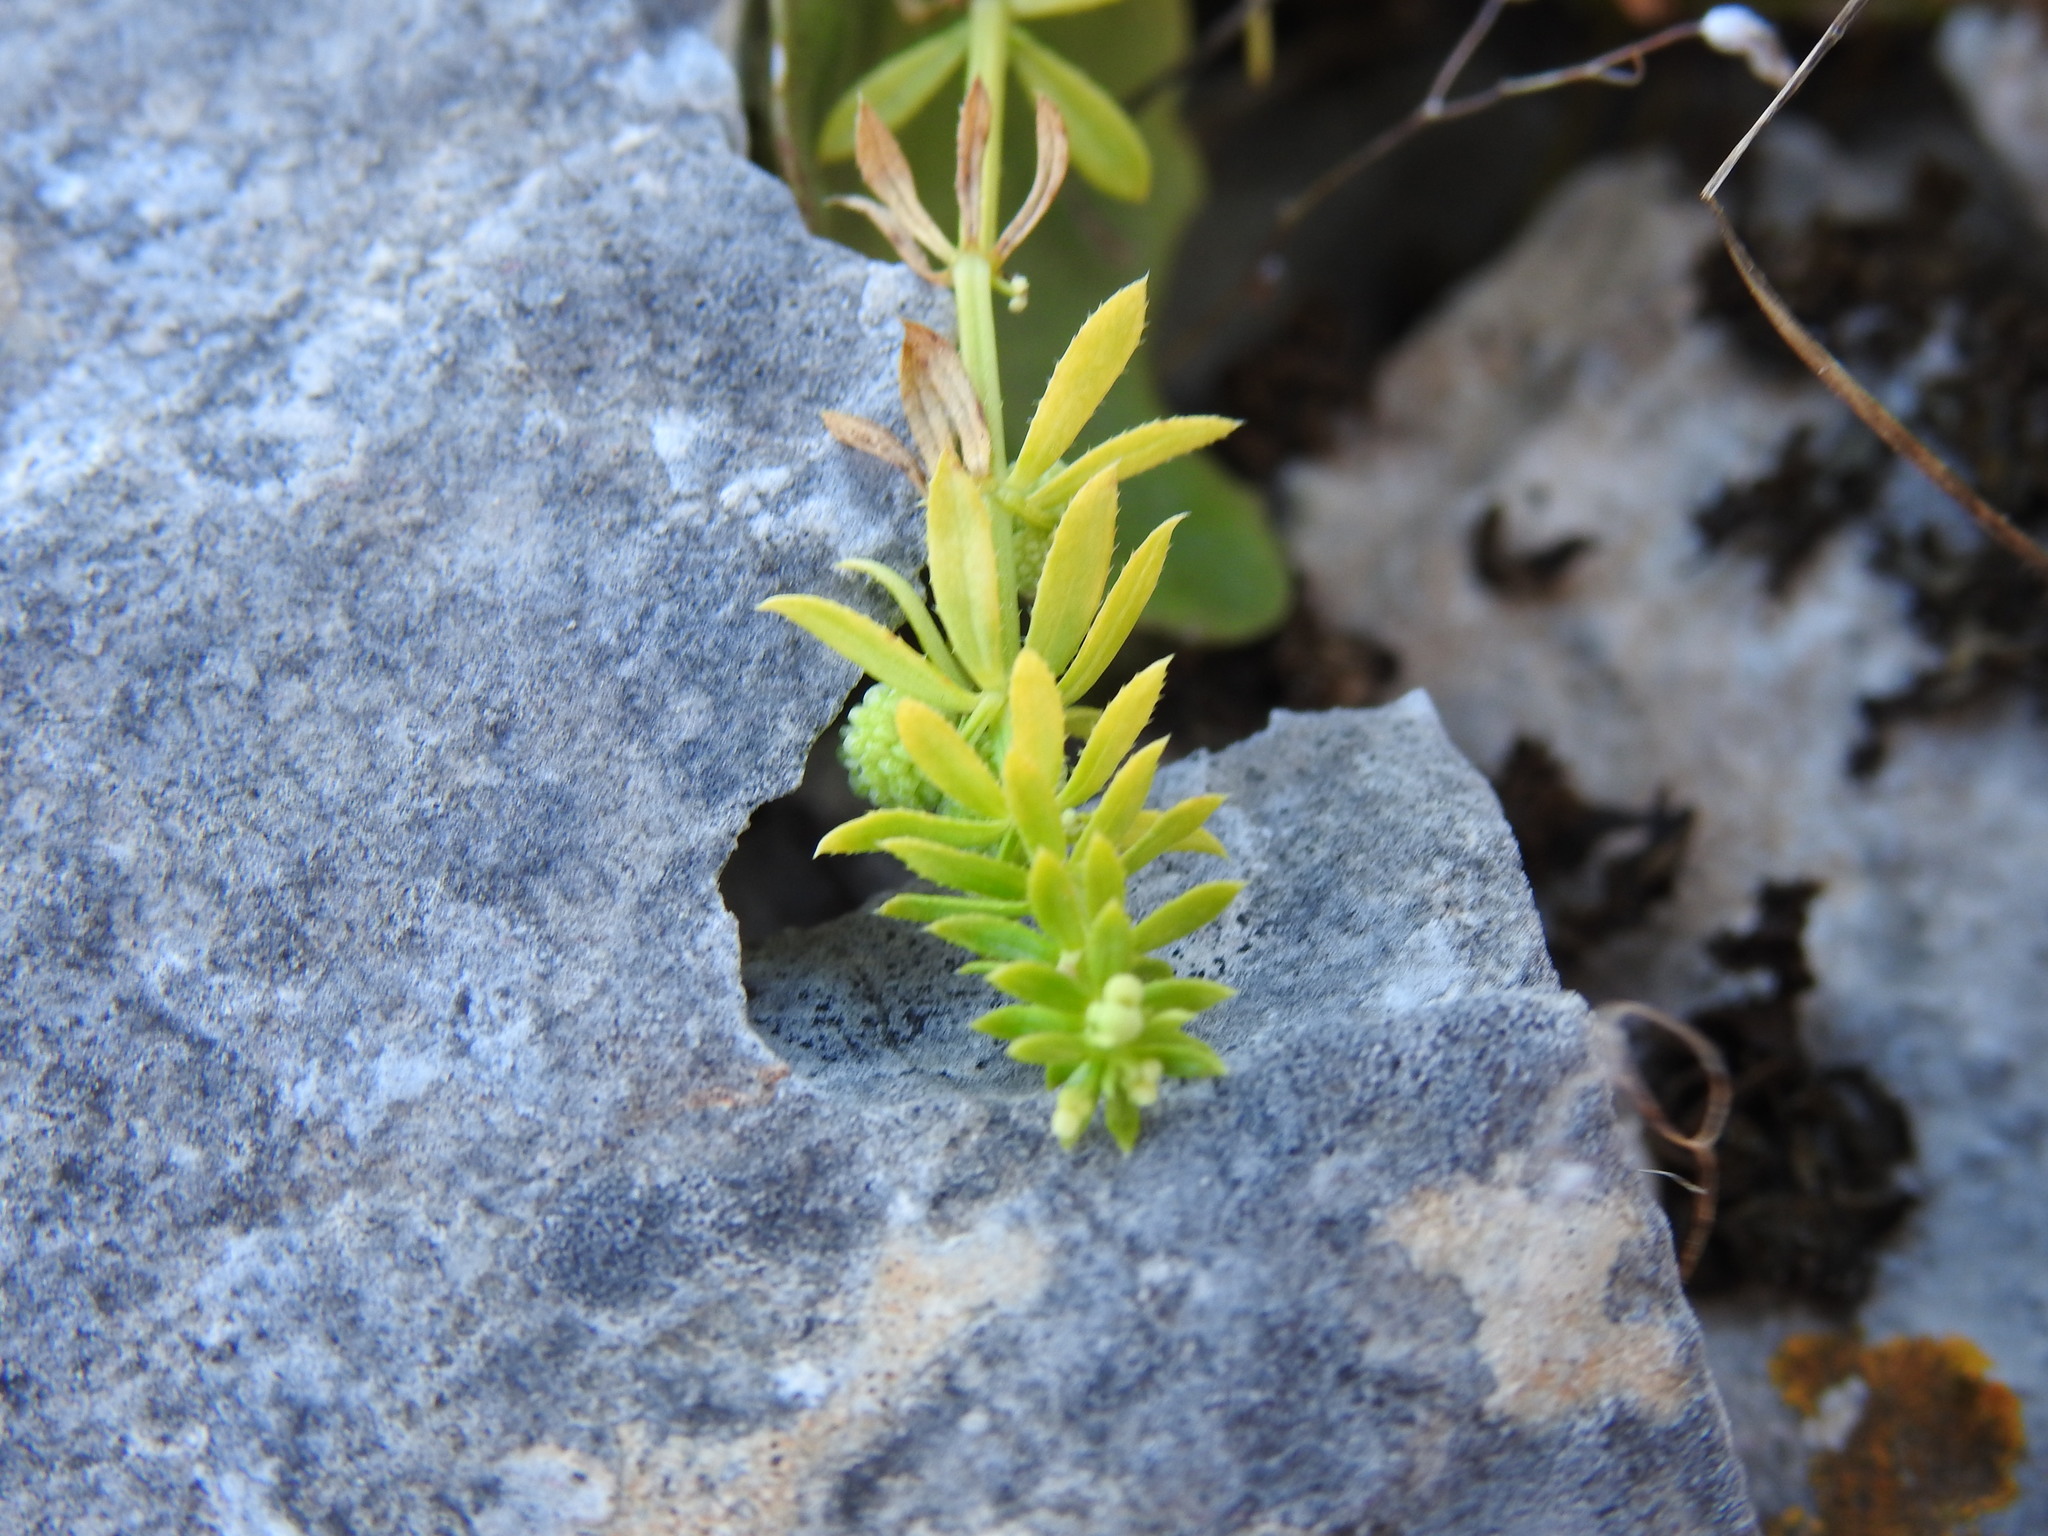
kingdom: Plantae
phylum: Tracheophyta
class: Magnoliopsida
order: Gentianales
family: Rubiaceae
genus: Galium
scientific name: Galium verrucosum
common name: Warty bedstraw
